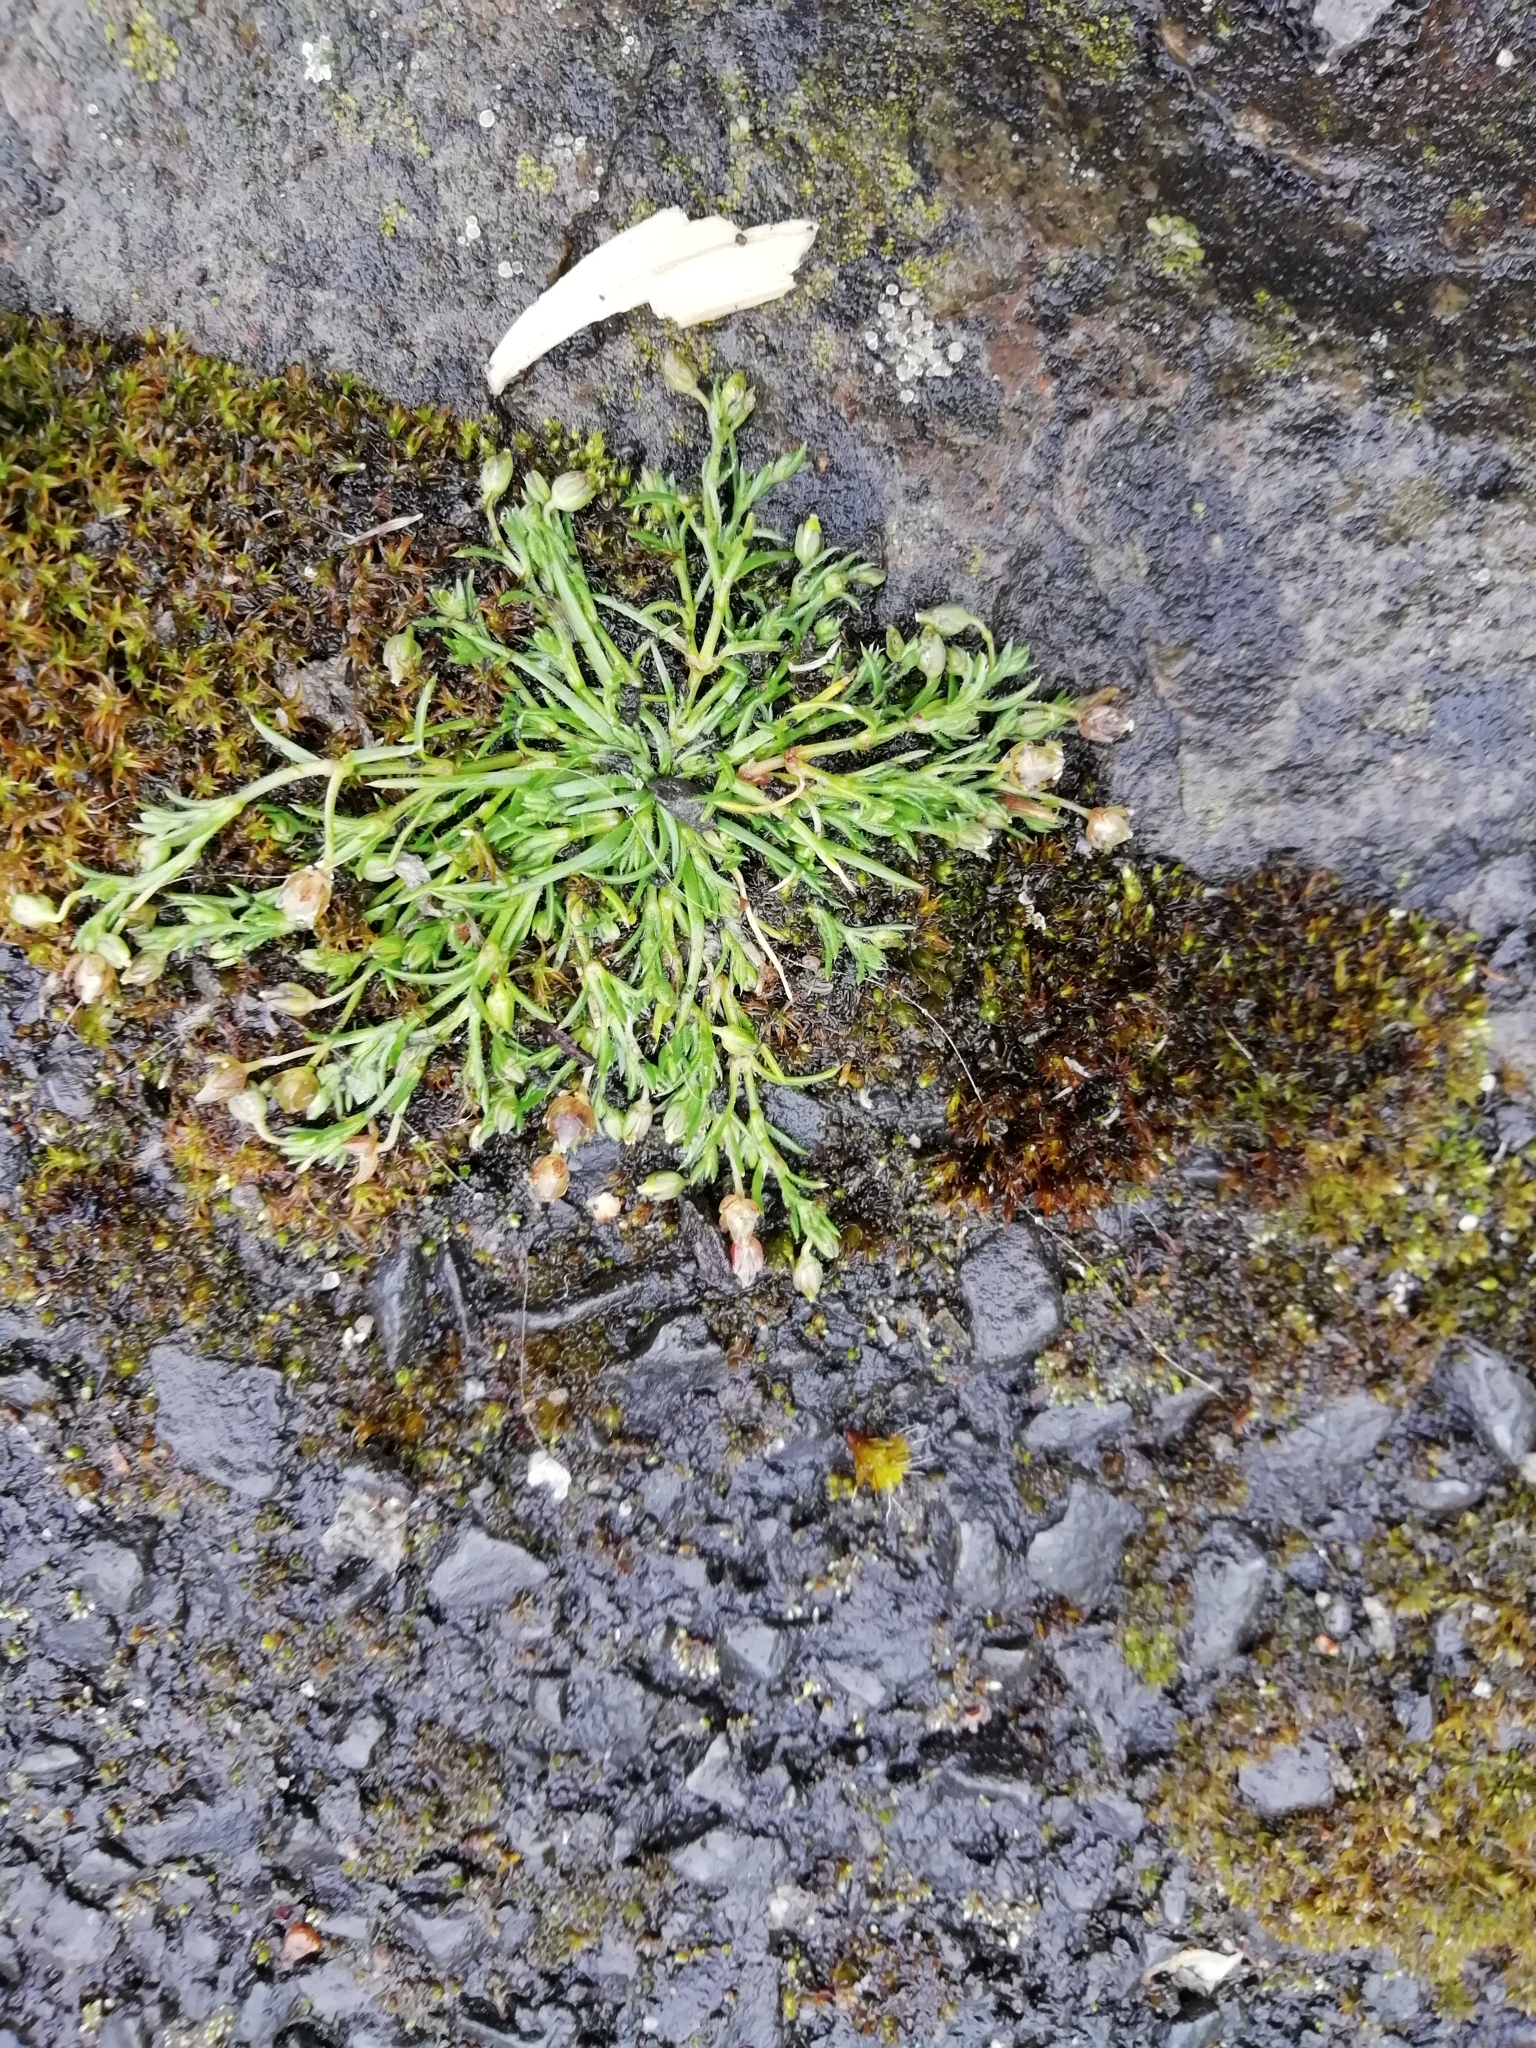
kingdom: Plantae
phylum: Tracheophyta
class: Magnoliopsida
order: Caryophyllales
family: Caryophyllaceae
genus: Sagina
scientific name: Sagina procumbens
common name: Procumbent pearlwort
